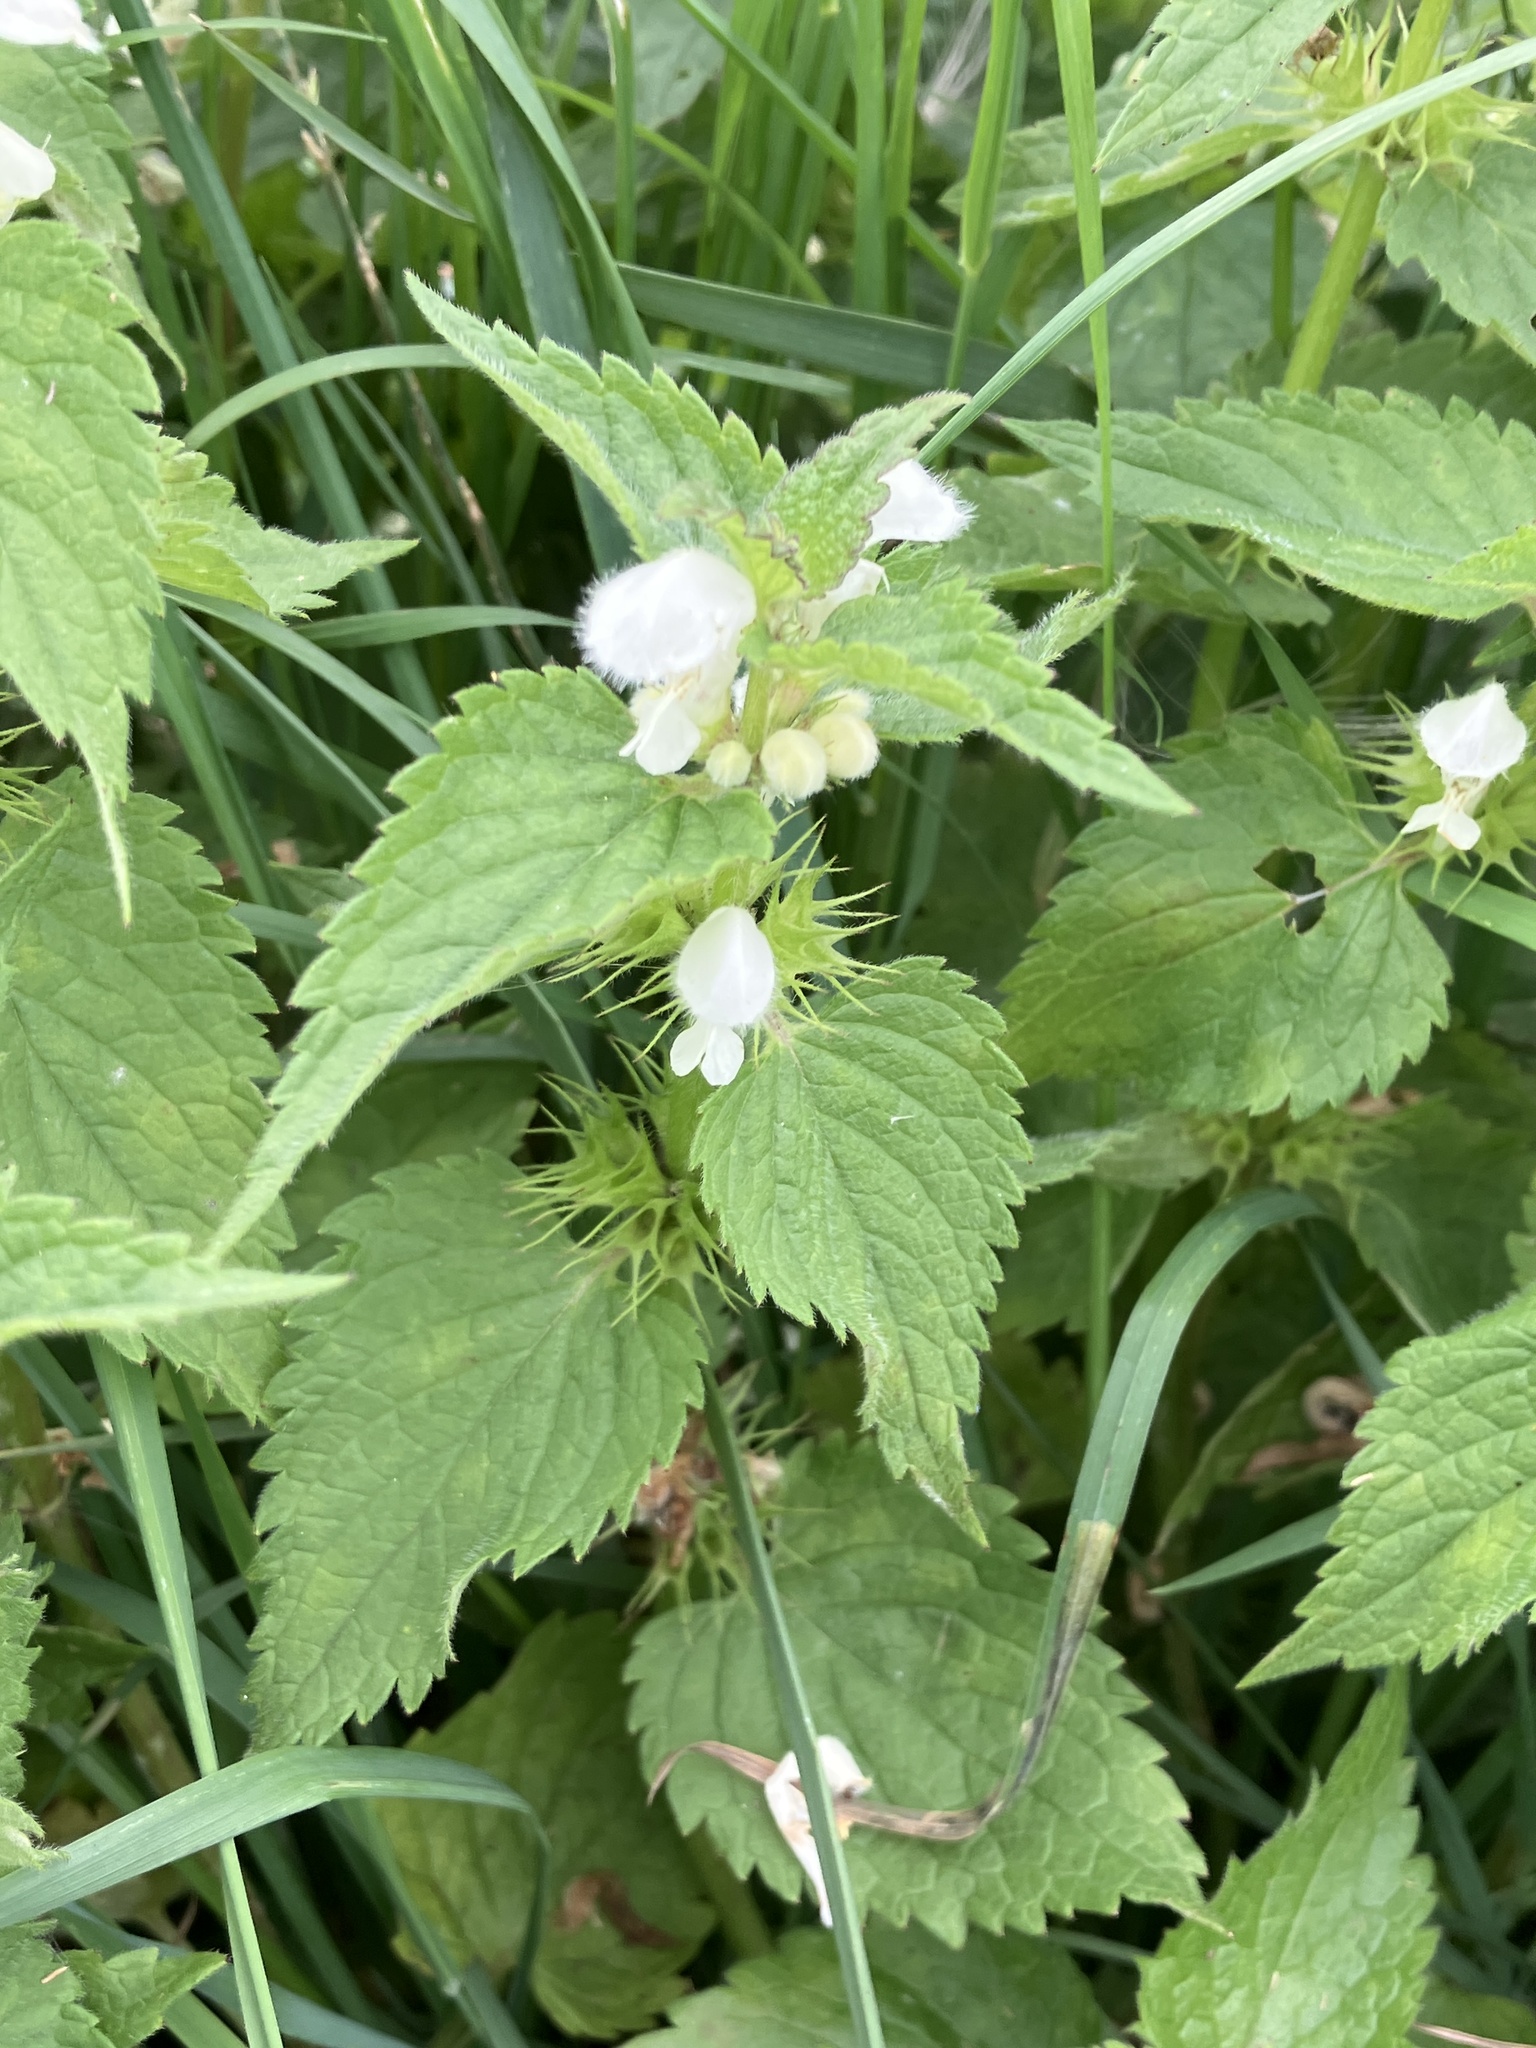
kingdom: Plantae
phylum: Tracheophyta
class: Magnoliopsida
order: Lamiales
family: Lamiaceae
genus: Lamium
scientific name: Lamium album
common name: White dead-nettle
